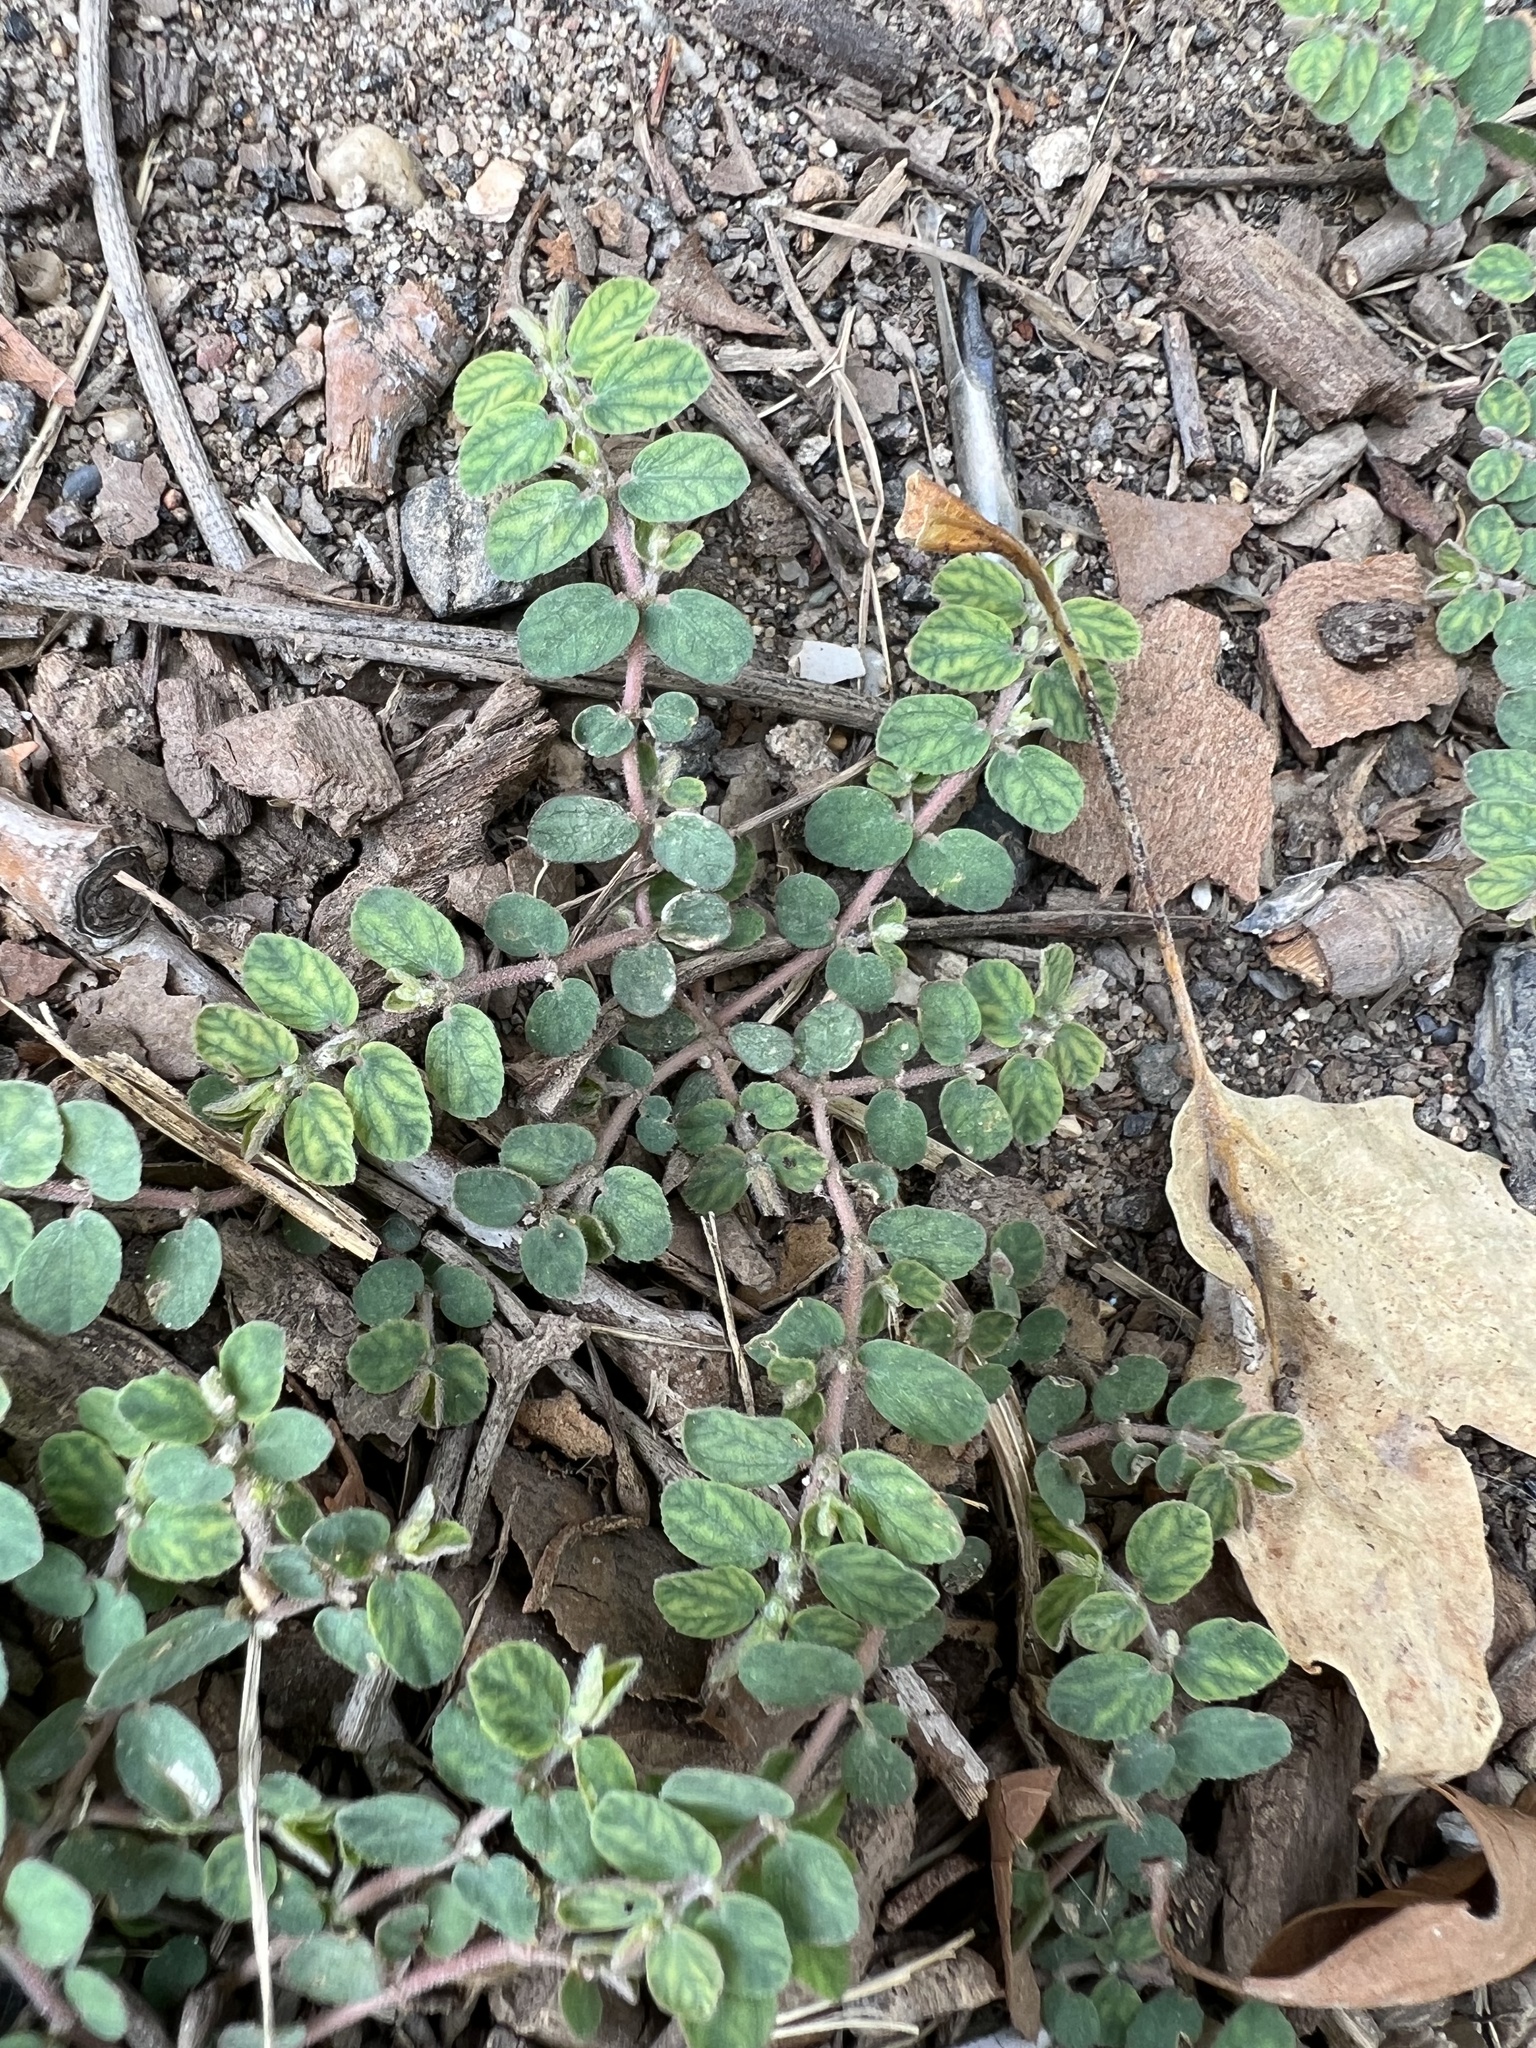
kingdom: Plantae
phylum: Tracheophyta
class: Magnoliopsida
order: Malpighiales
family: Euphorbiaceae
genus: Euphorbia
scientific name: Euphorbia prostrata
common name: Prostrate sandmat
